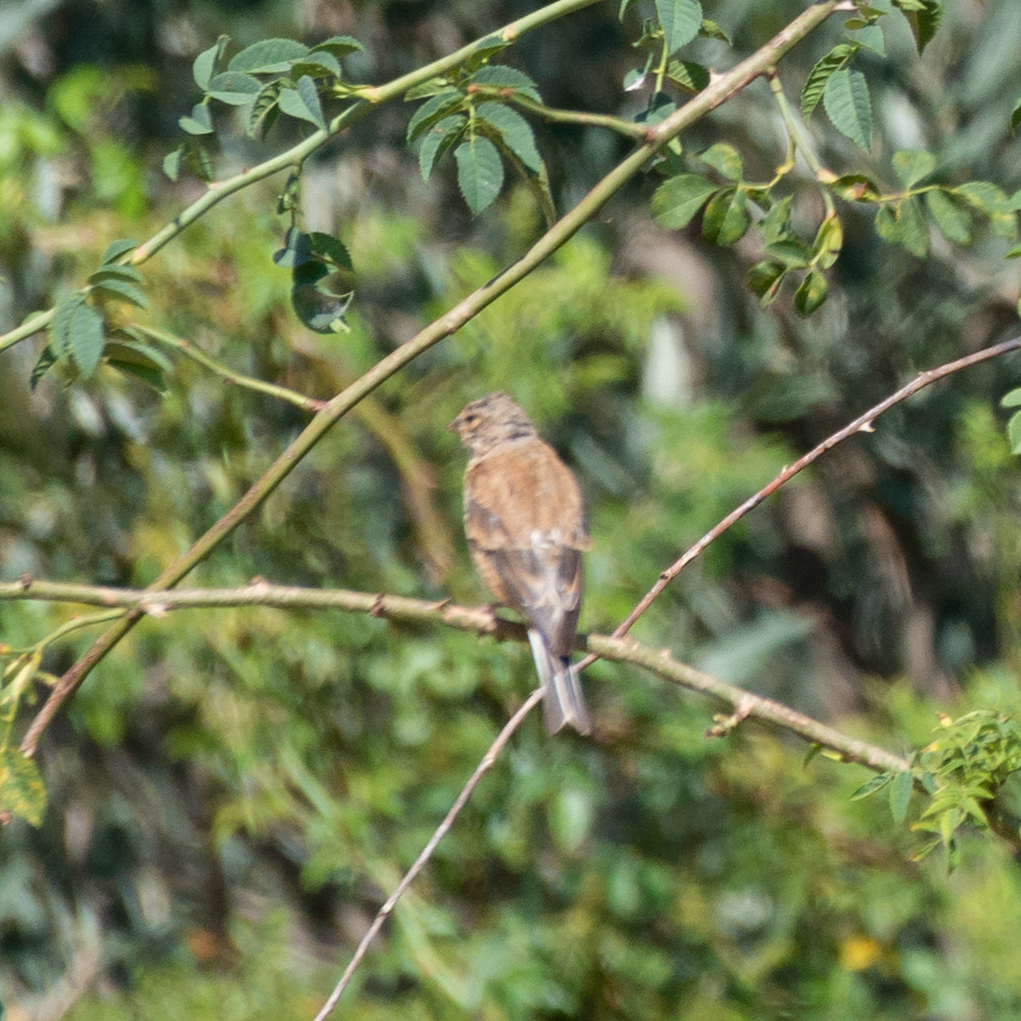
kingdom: Animalia
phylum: Chordata
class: Aves
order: Passeriformes
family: Fringillidae
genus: Linaria
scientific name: Linaria cannabina
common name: Common linnet
